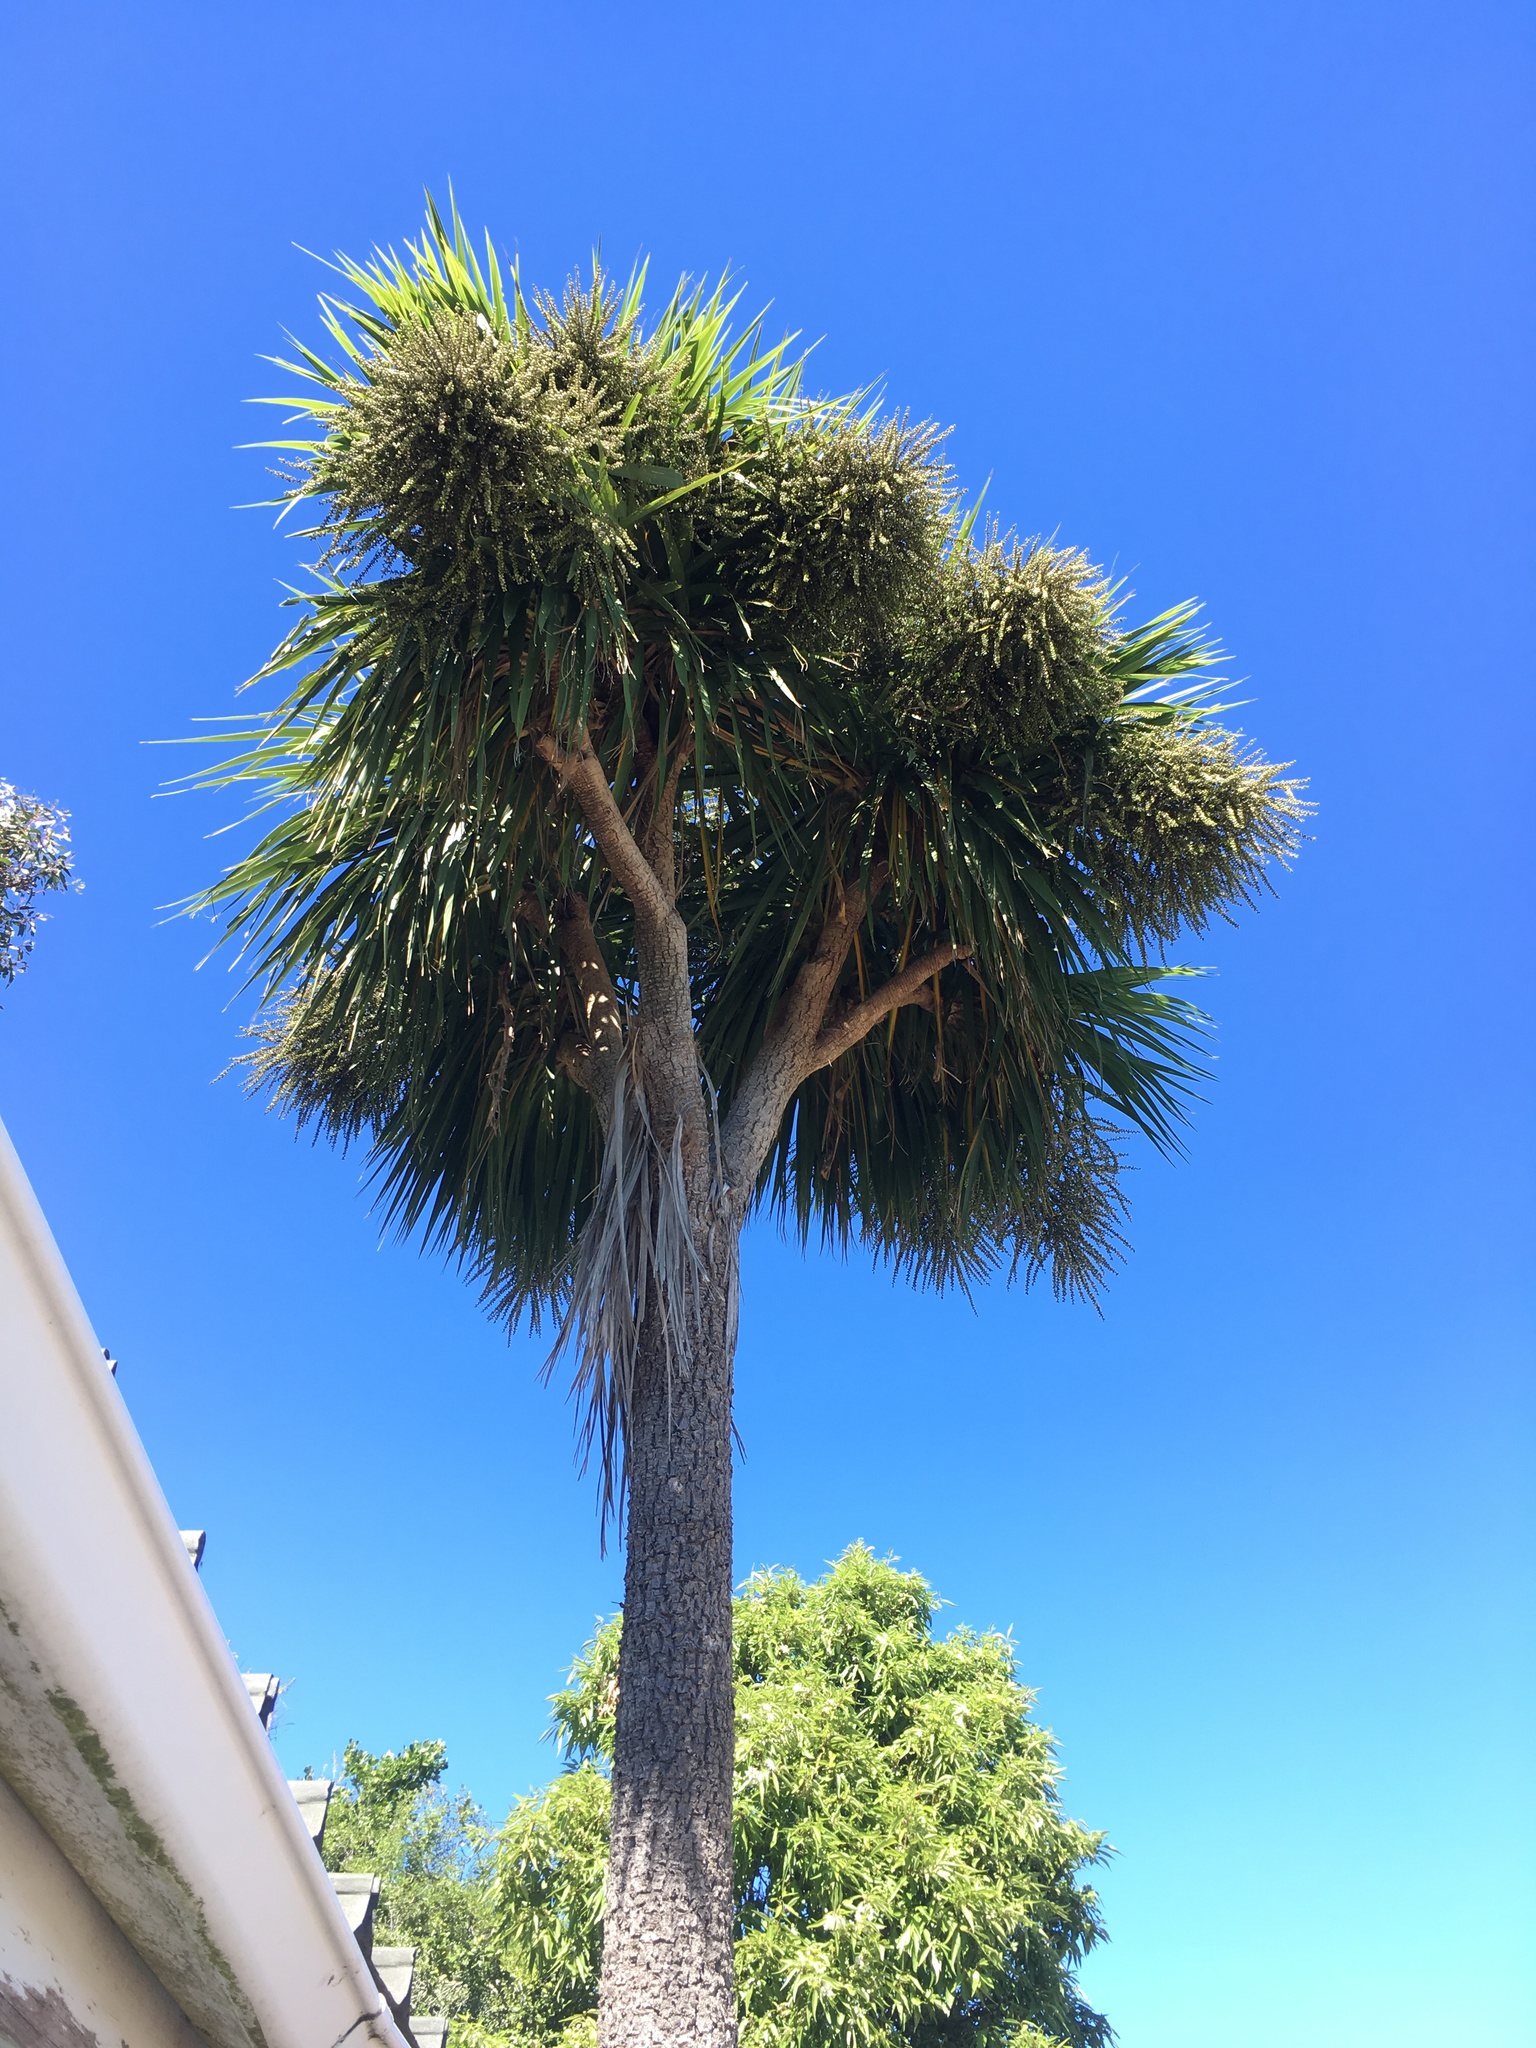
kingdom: Plantae
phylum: Tracheophyta
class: Liliopsida
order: Asparagales
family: Asparagaceae
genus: Cordyline
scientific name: Cordyline australis
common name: Cabbage-palm
